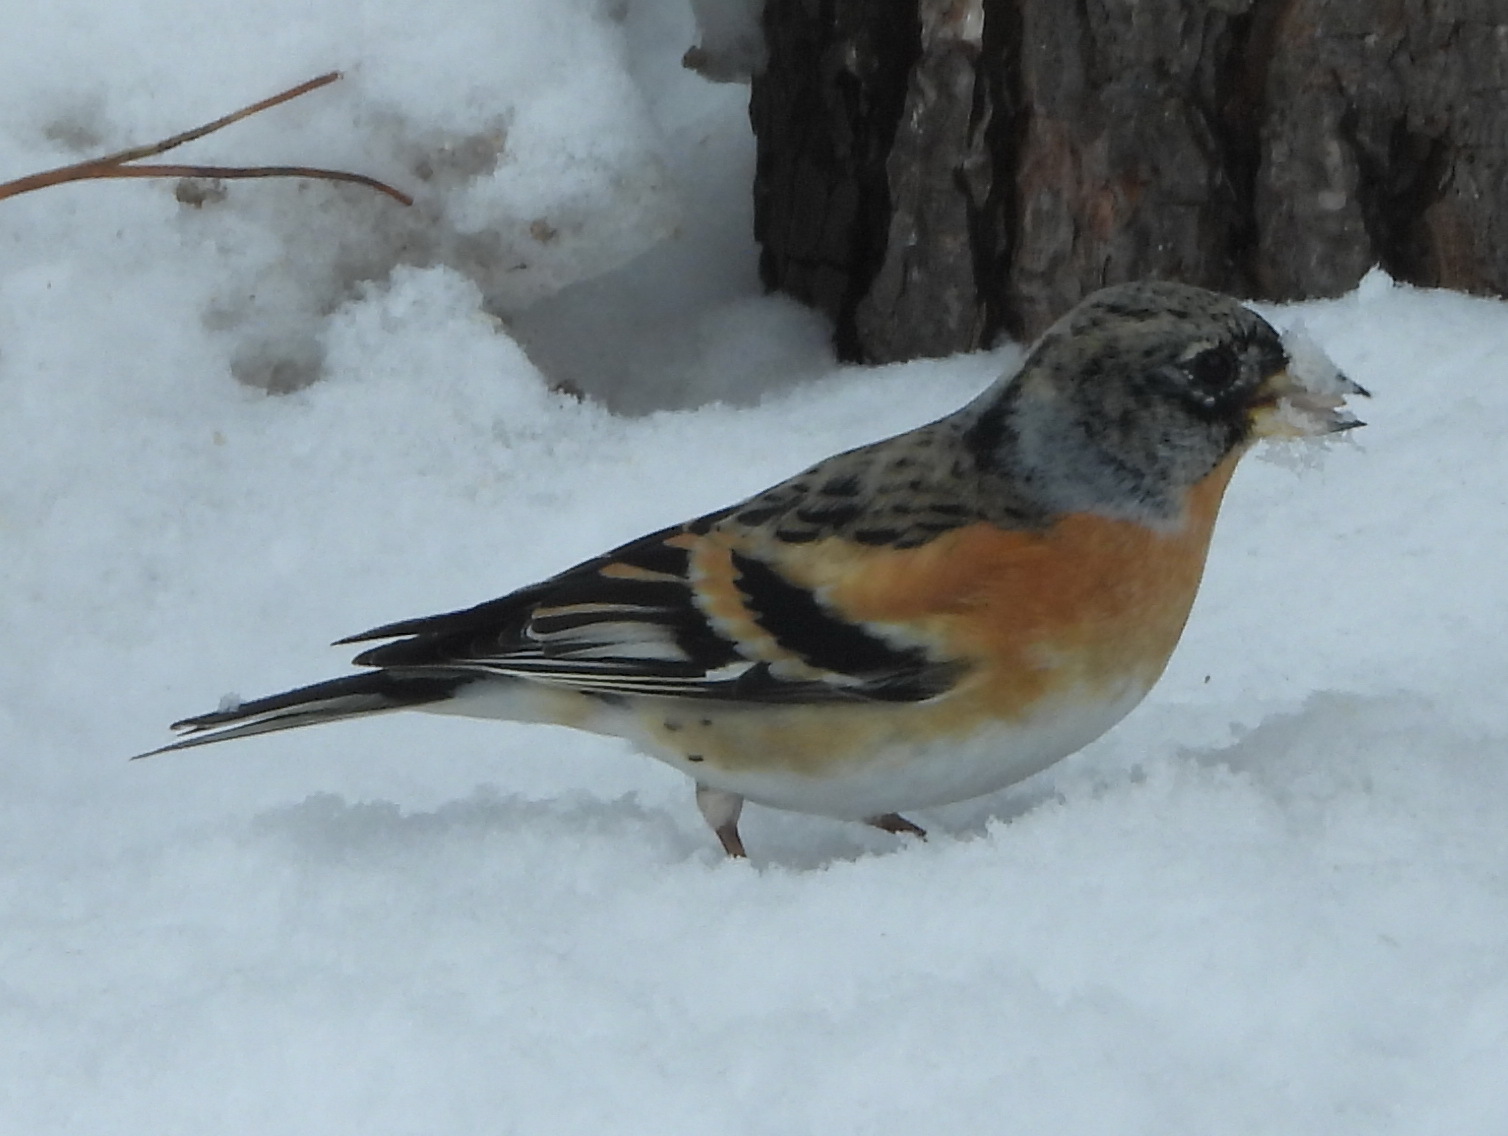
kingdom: Animalia
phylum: Chordata
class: Aves
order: Passeriformes
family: Fringillidae
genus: Fringilla
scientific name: Fringilla montifringilla
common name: Brambling
